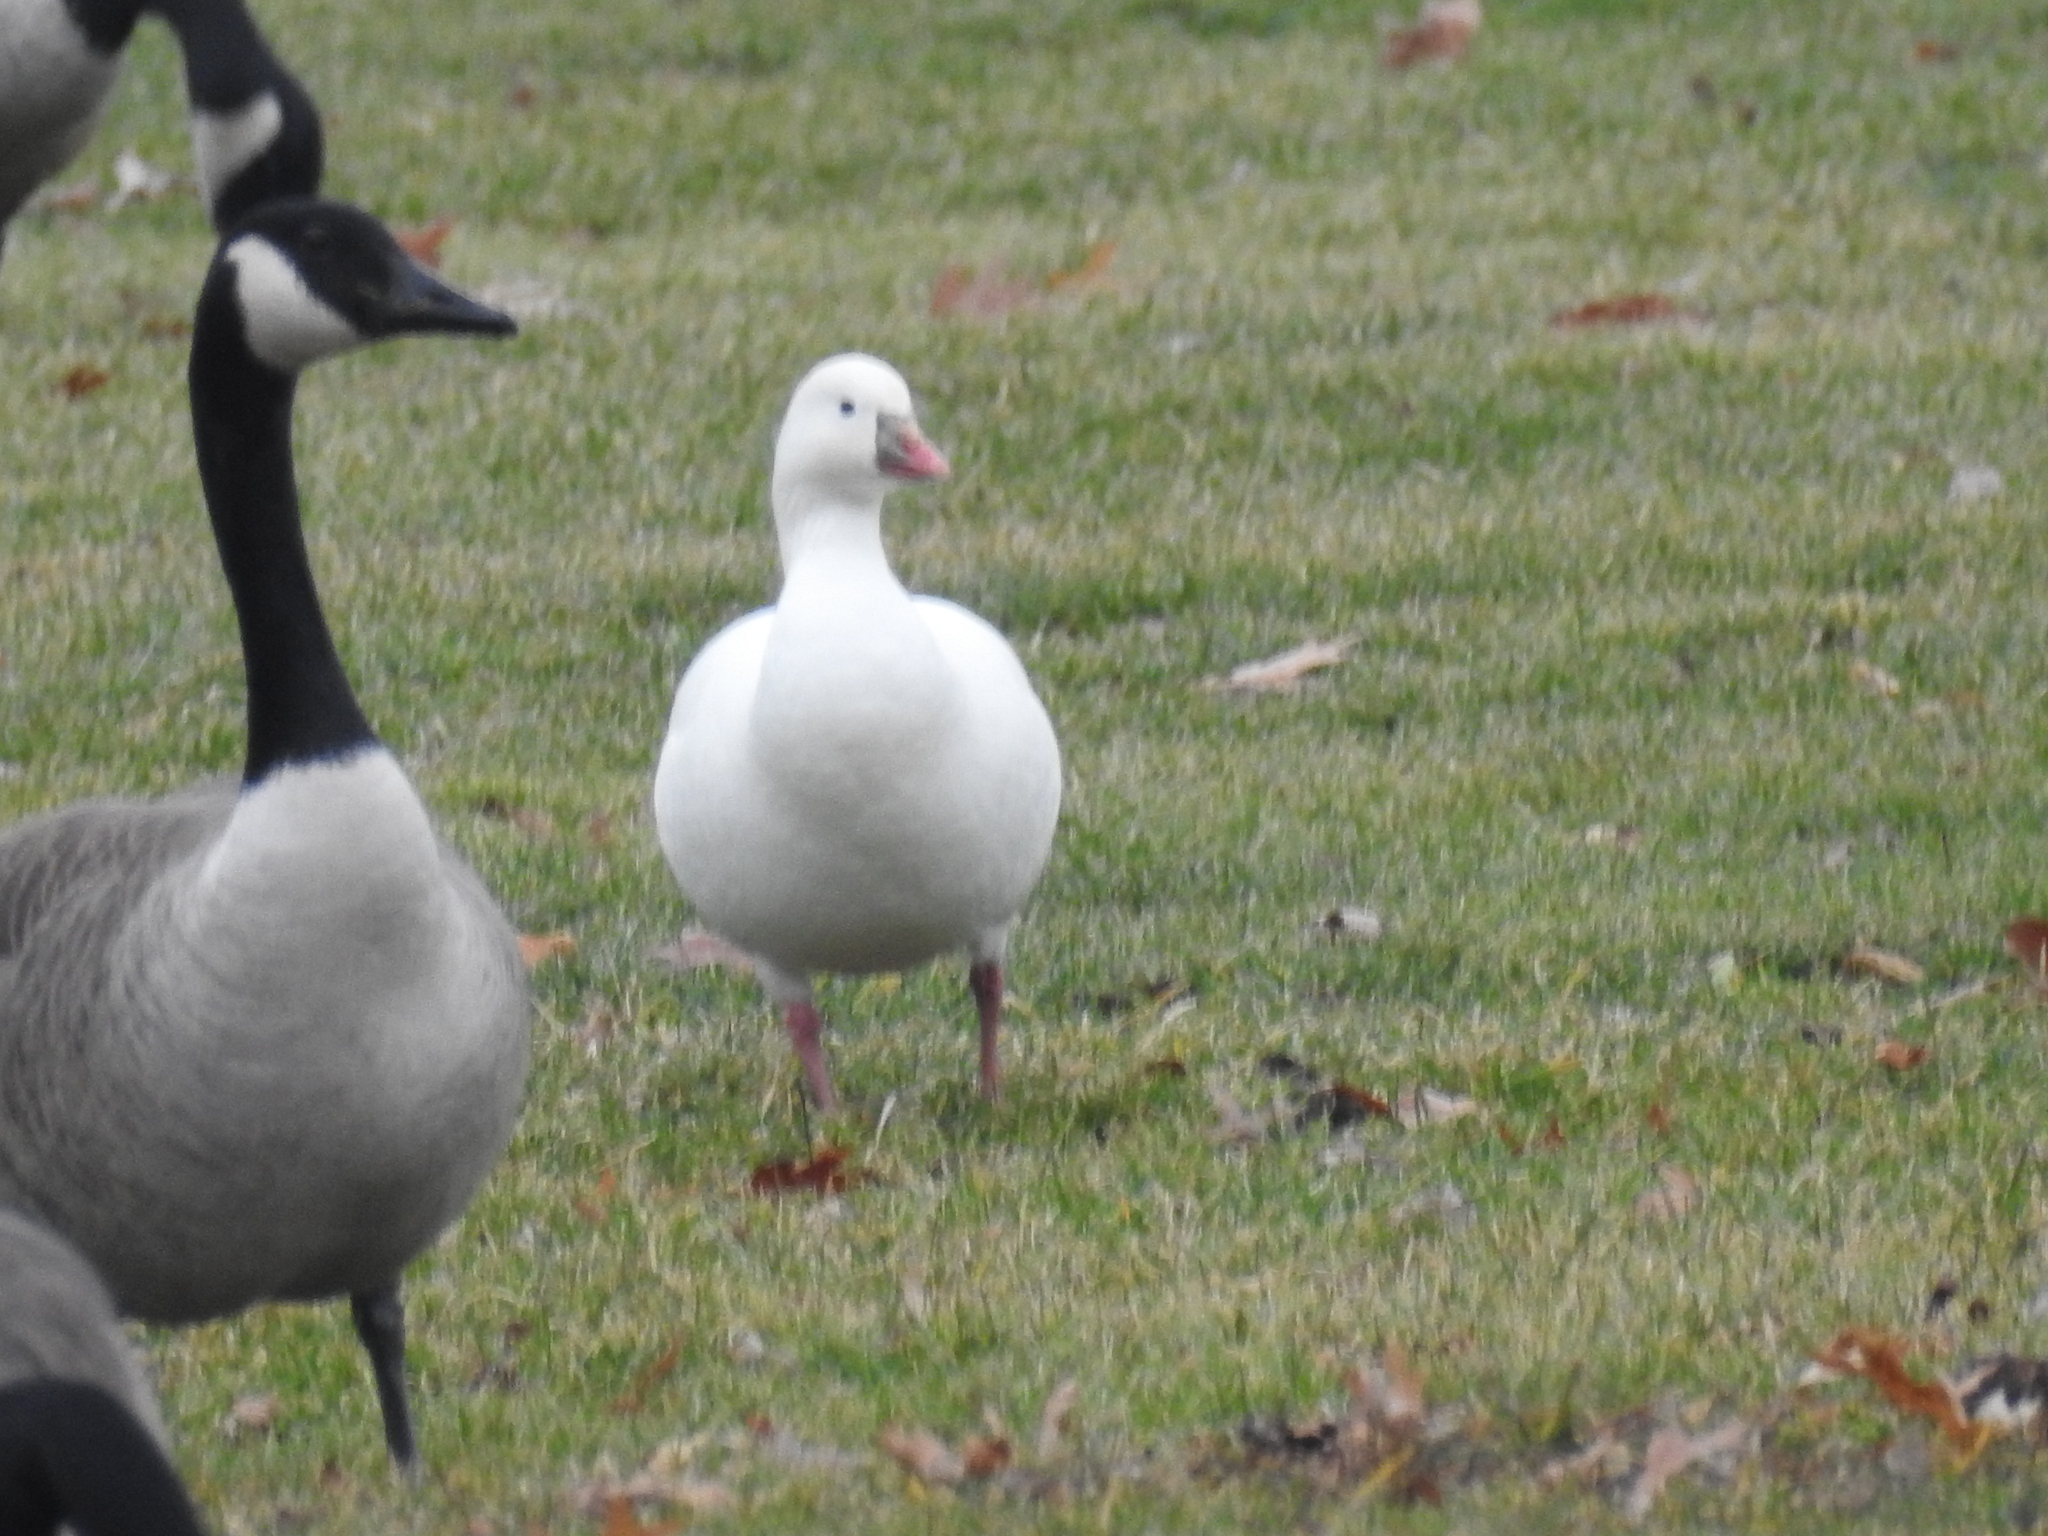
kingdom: Animalia
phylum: Chordata
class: Aves
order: Anseriformes
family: Anatidae
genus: Branta
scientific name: Branta canadensis
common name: Canada goose
